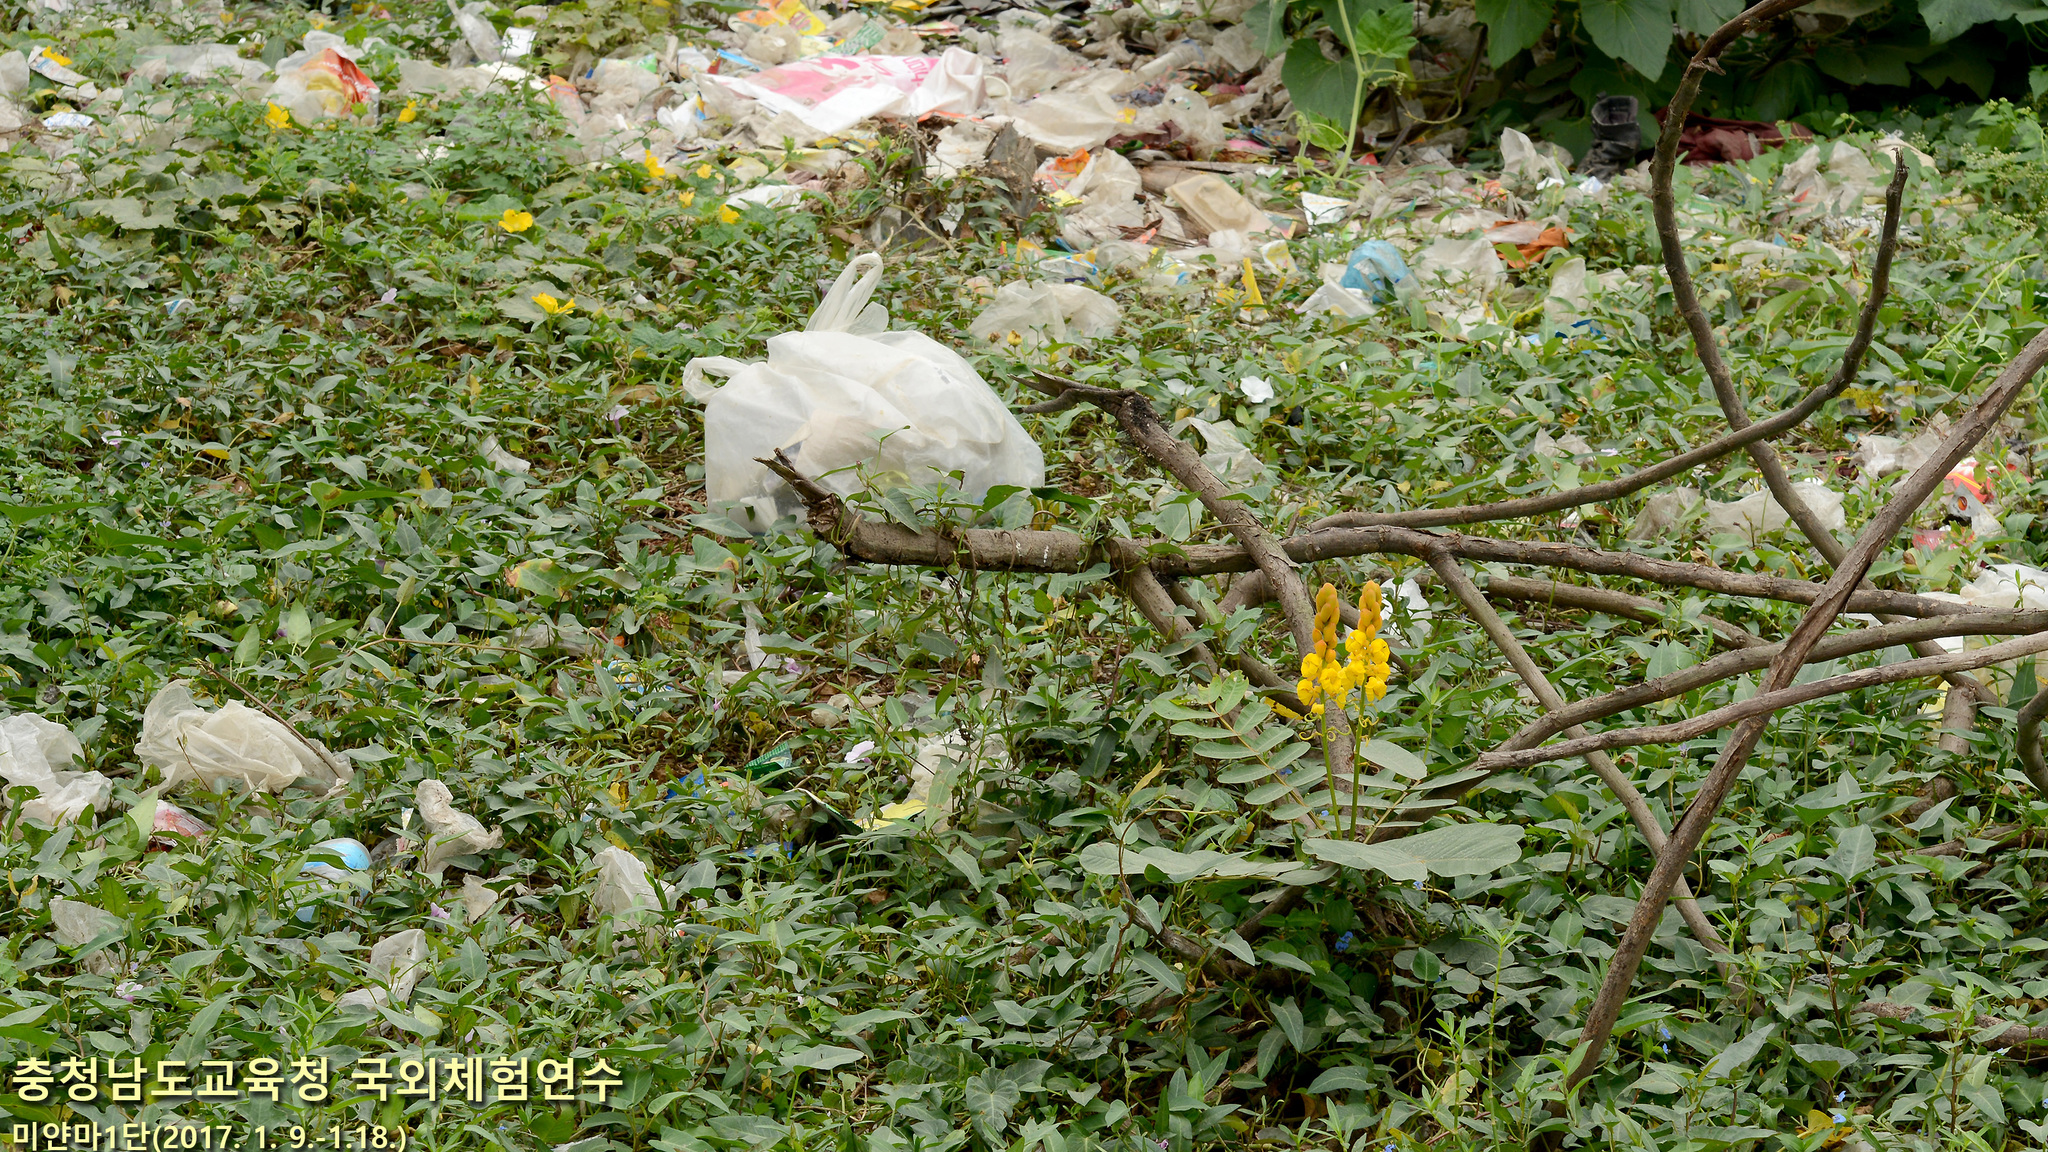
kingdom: Plantae
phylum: Tracheophyta
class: Magnoliopsida
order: Fabales
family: Fabaceae
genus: Senna
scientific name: Senna alata
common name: Emperor's candlesticks
